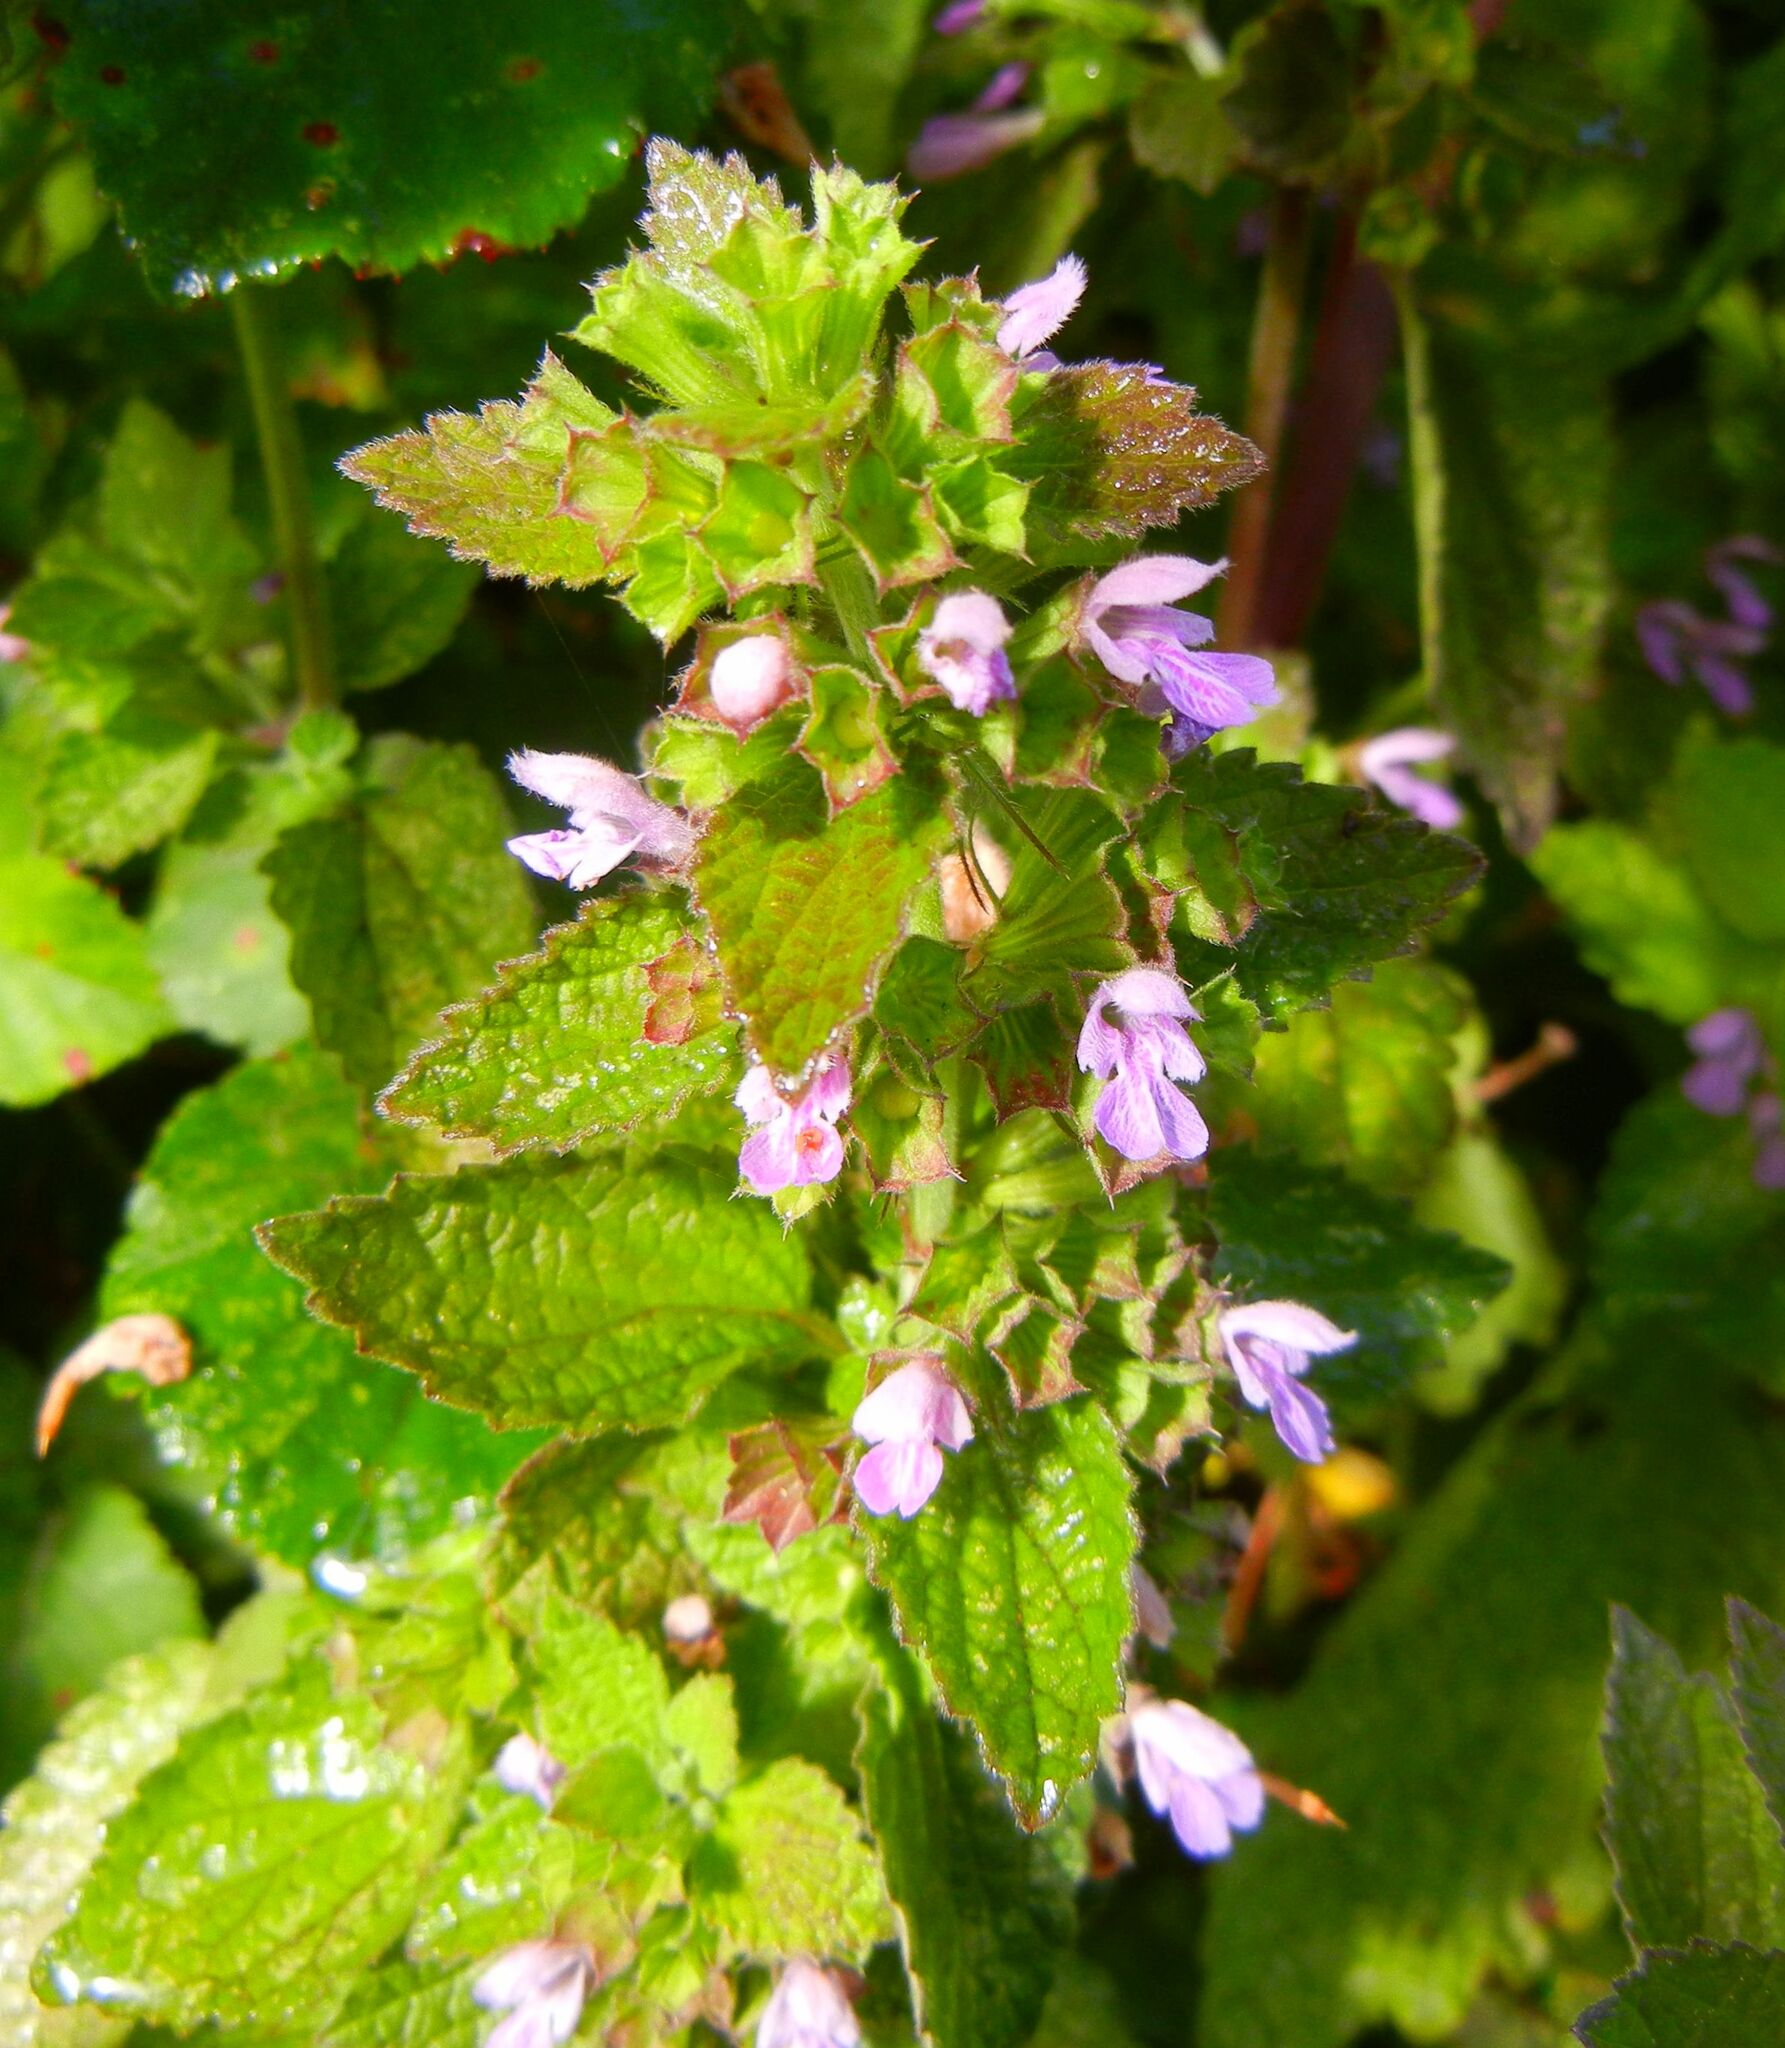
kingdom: Plantae
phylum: Tracheophyta
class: Magnoliopsida
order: Lamiales
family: Lamiaceae
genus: Ballota
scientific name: Ballota nigra
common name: Black horehound
